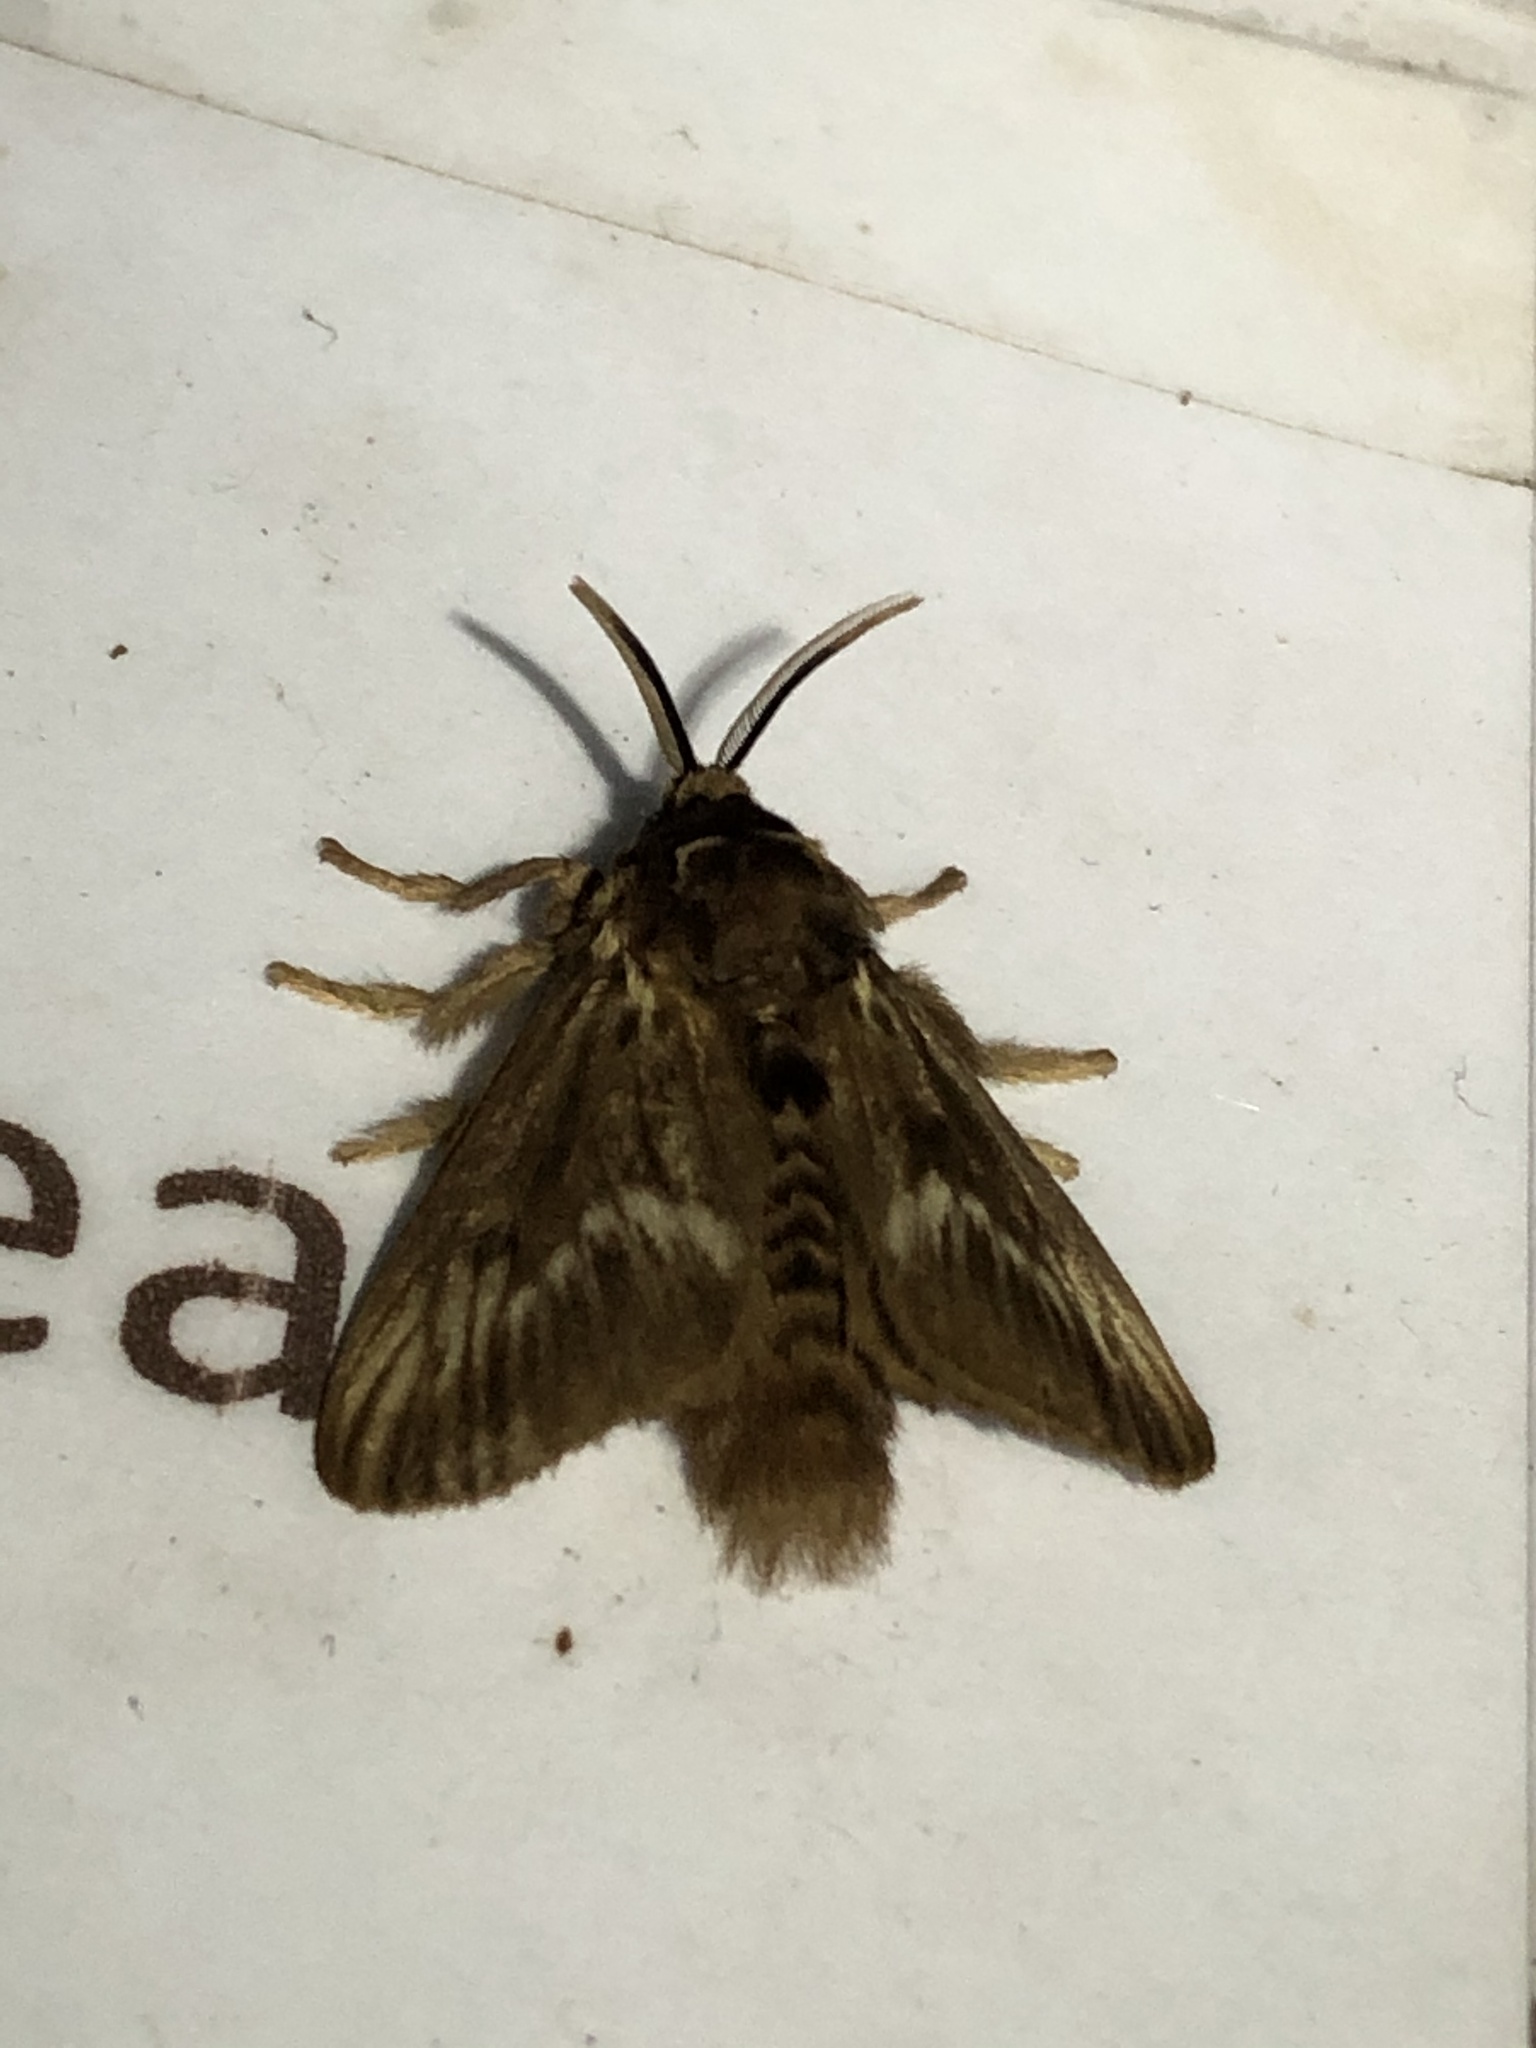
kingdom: Animalia
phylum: Arthropoda
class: Insecta
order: Lepidoptera
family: Megalopygidae
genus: Megalopyge
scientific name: Megalopyge peruana
